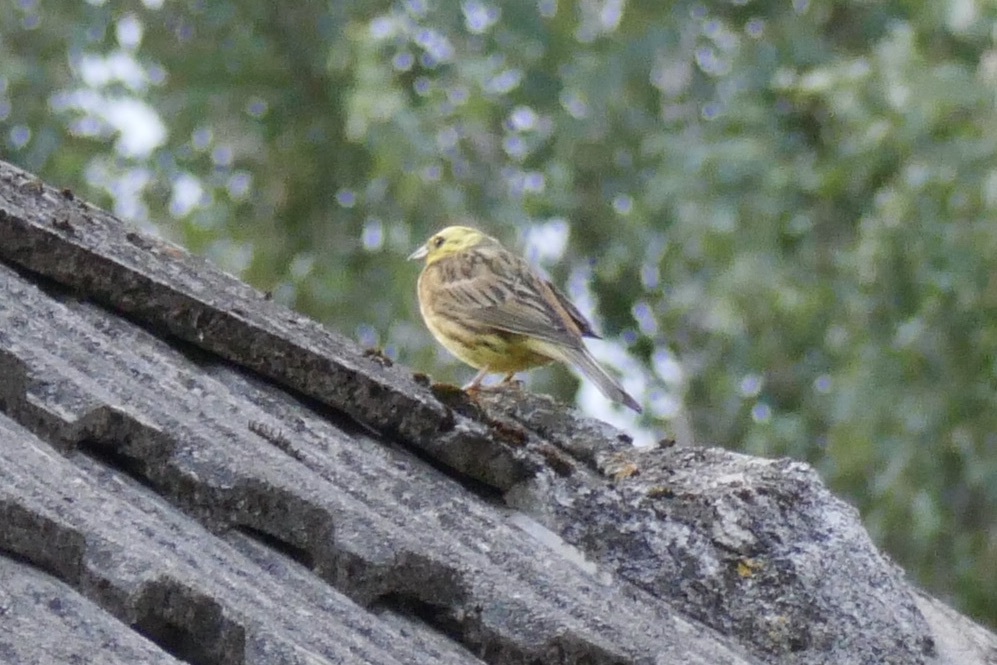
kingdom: Animalia
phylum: Chordata
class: Aves
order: Passeriformes
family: Emberizidae
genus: Emberiza
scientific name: Emberiza citrinella
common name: Yellowhammer
